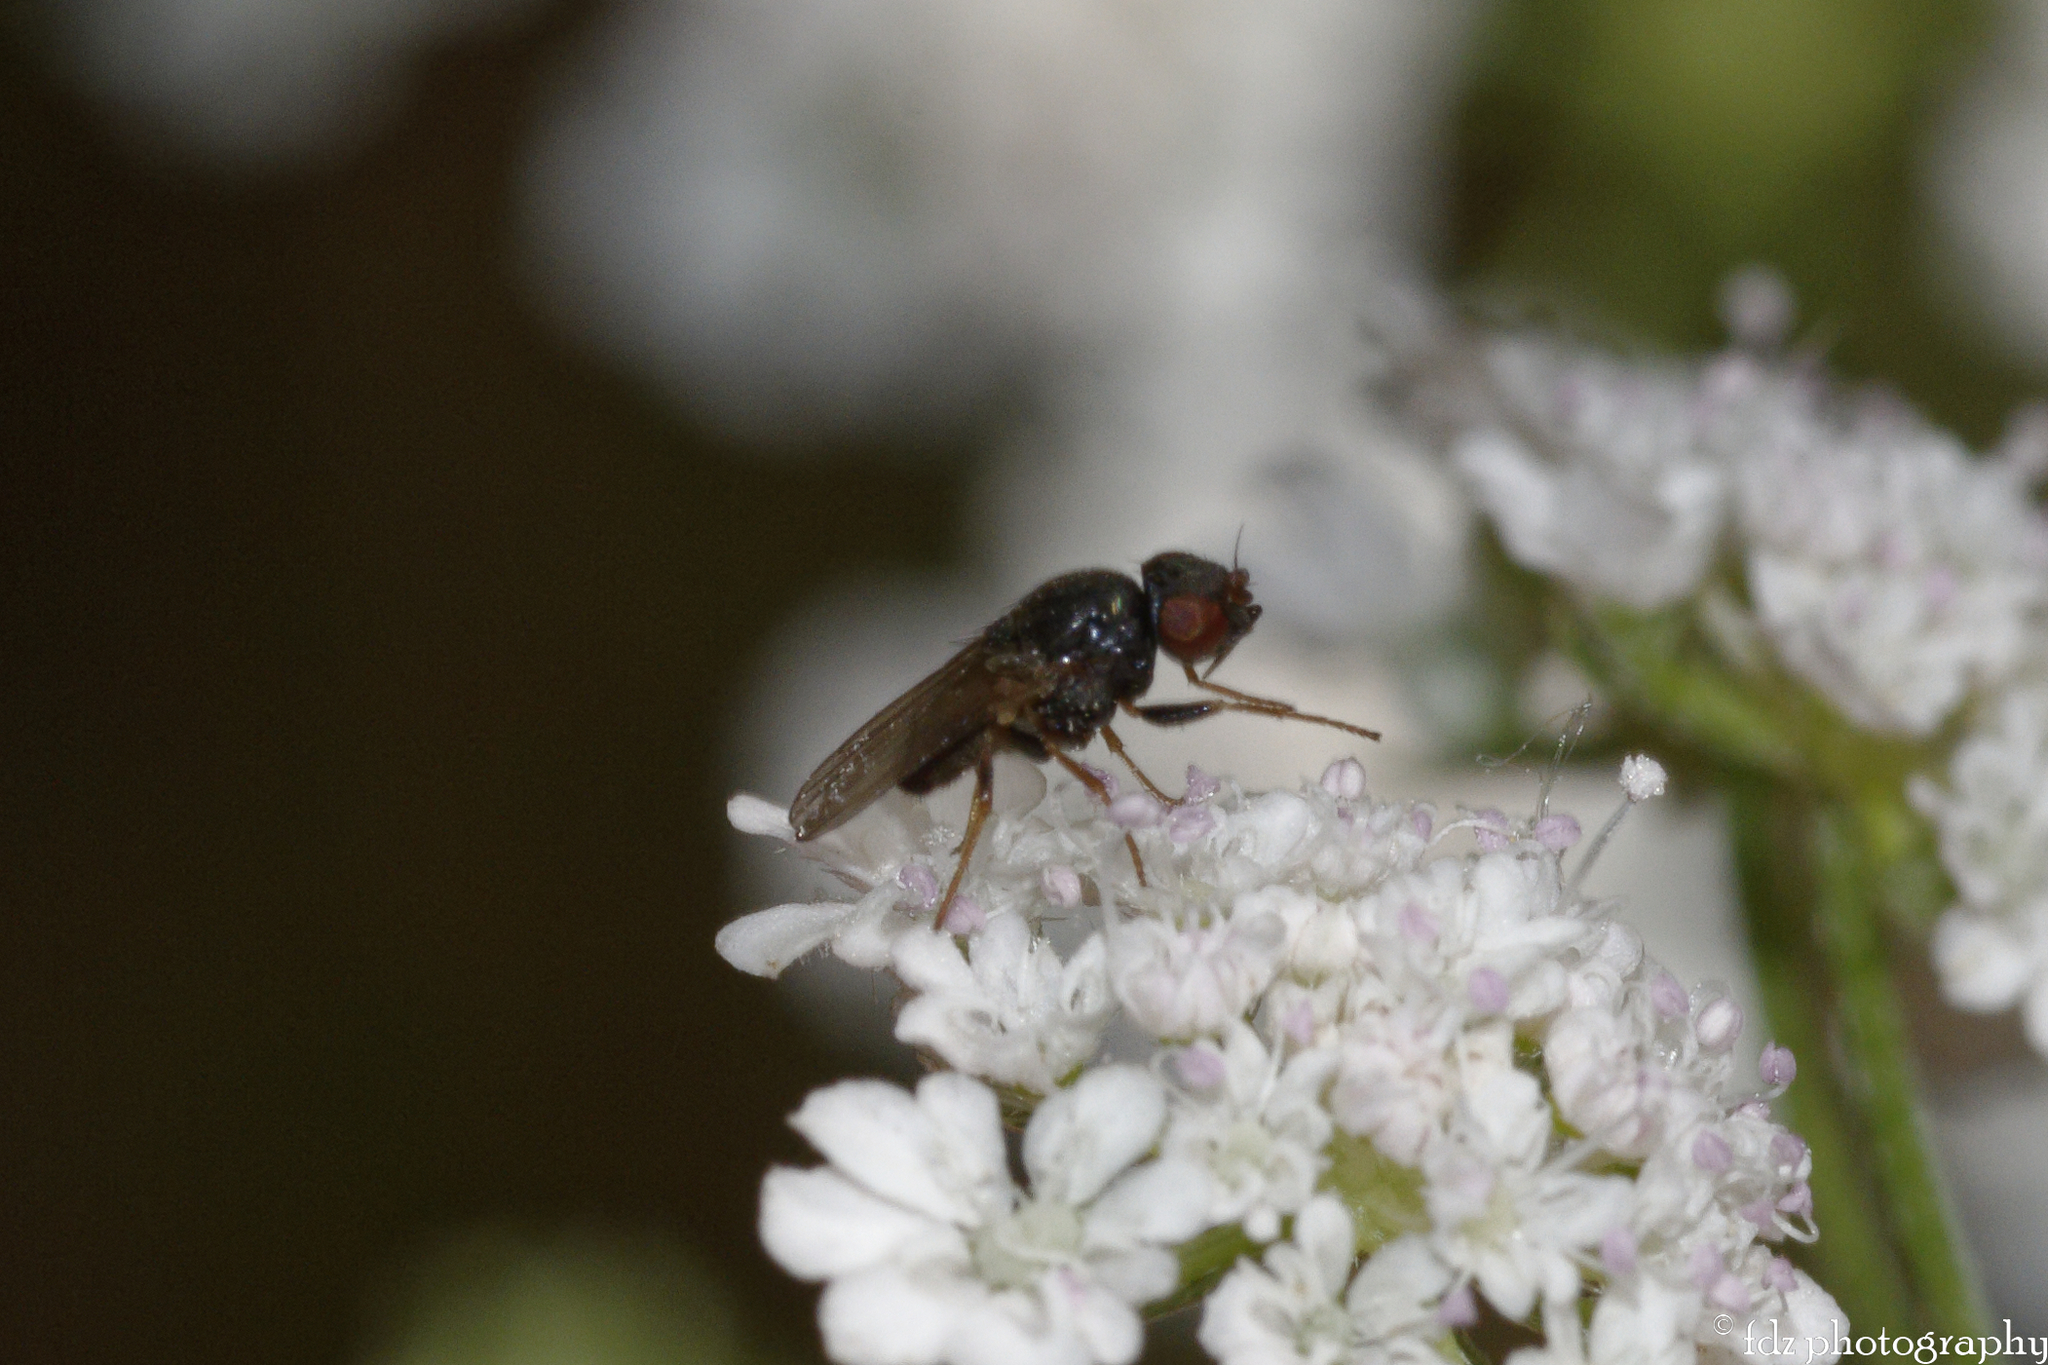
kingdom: Animalia
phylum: Arthropoda
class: Insecta
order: Diptera
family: Chloropidae
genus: Siphonella
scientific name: Siphonella oscinina
